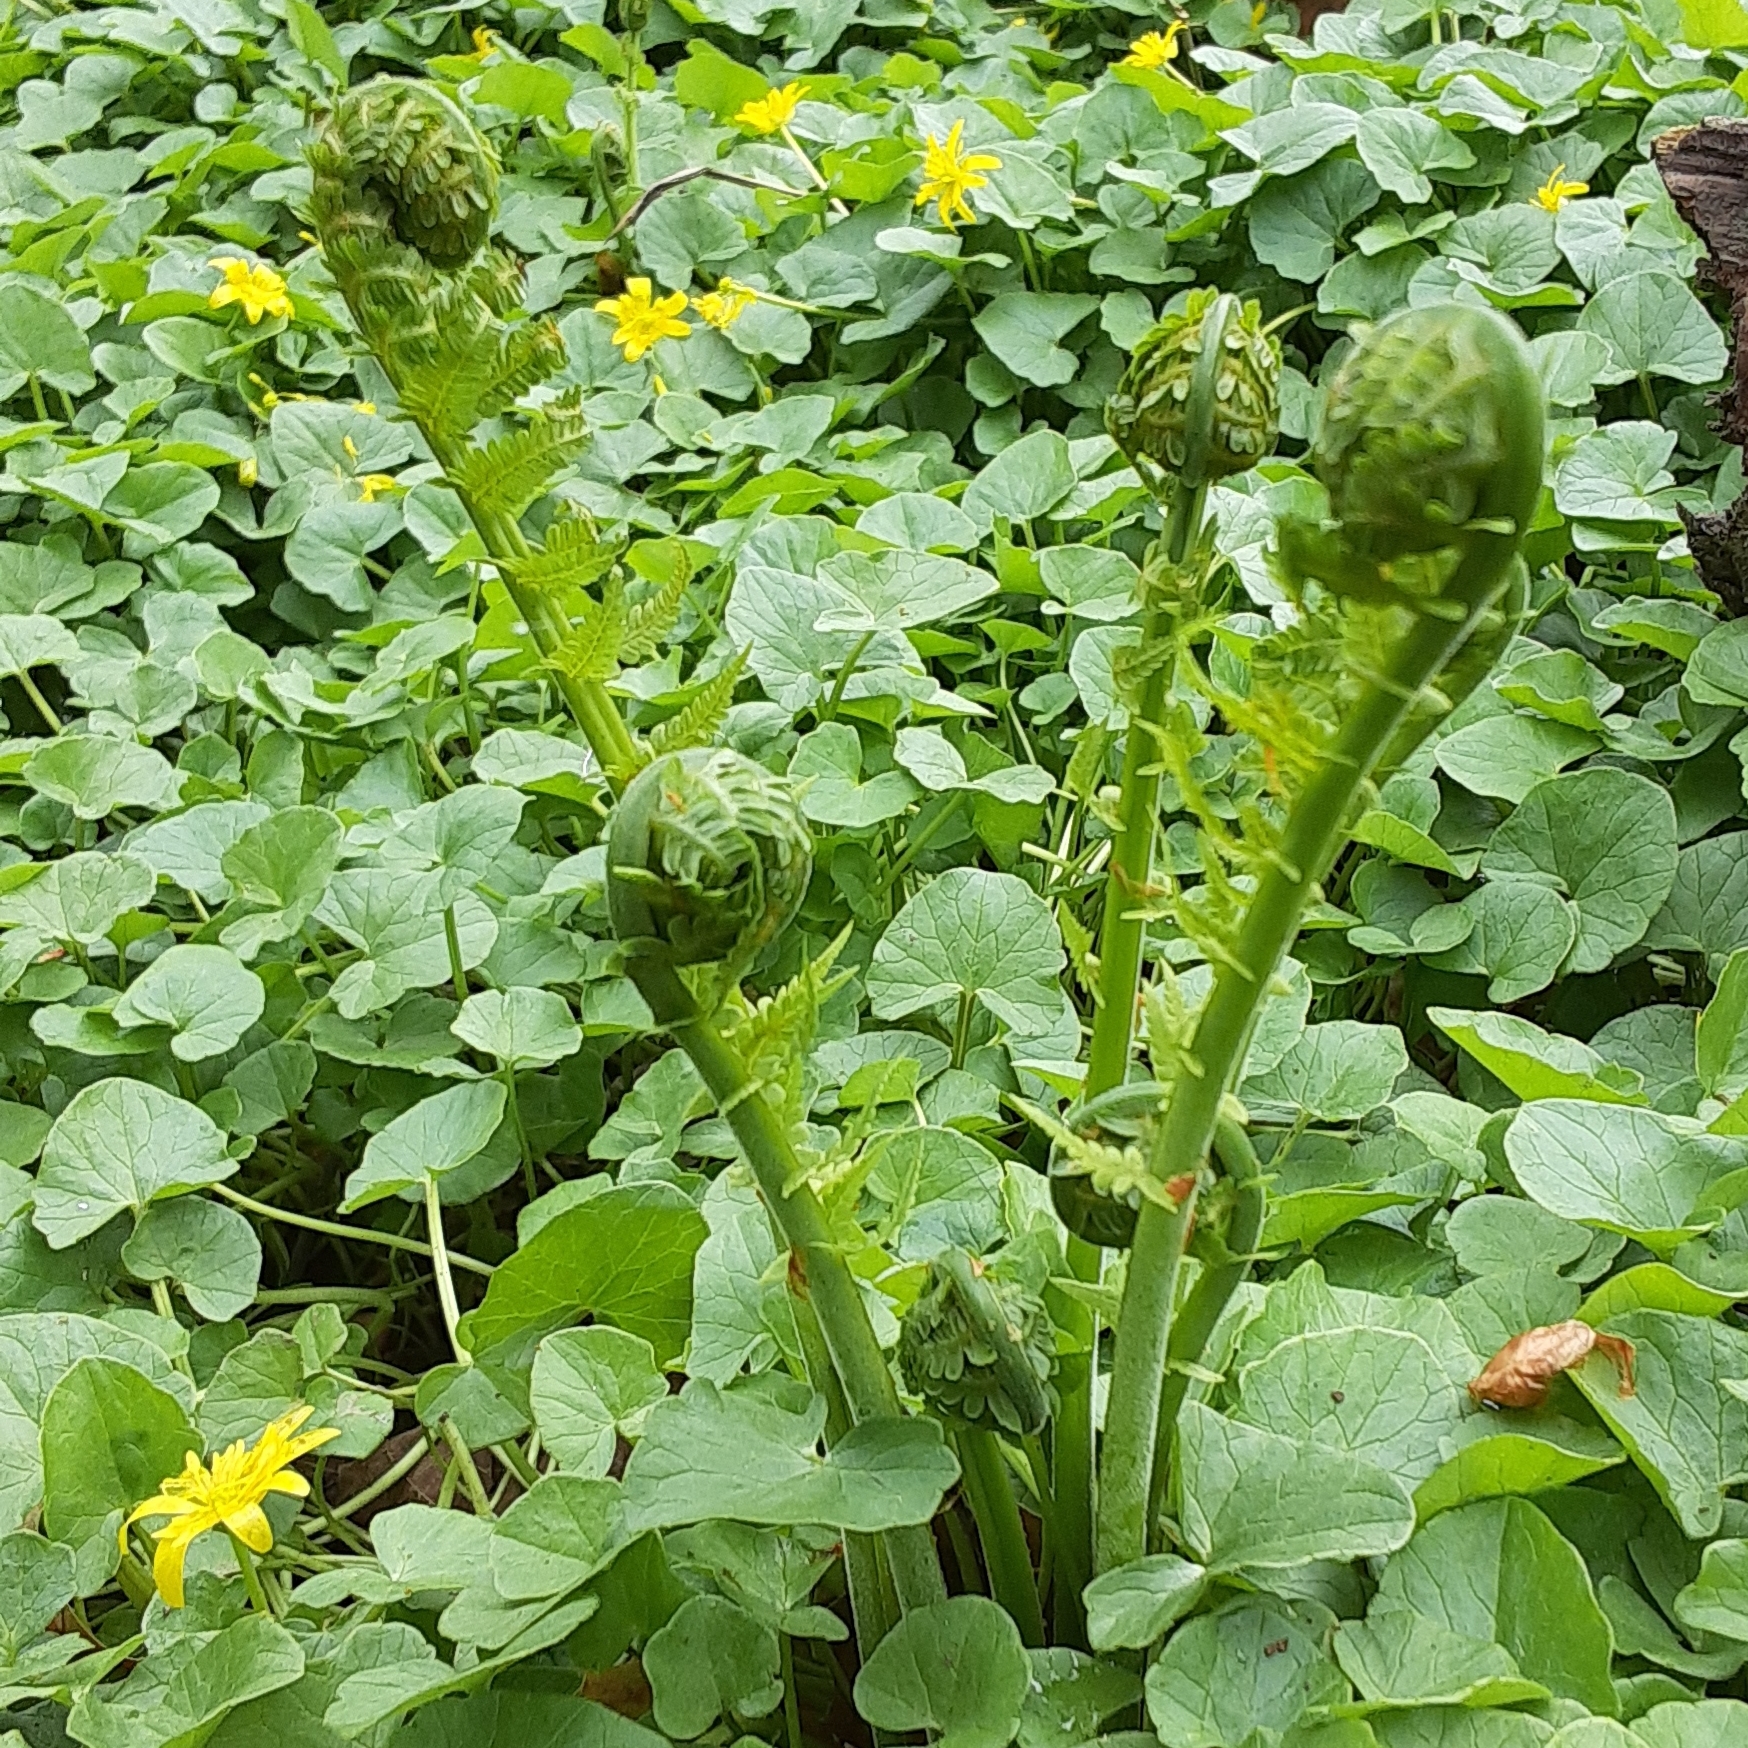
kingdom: Plantae
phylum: Tracheophyta
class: Polypodiopsida
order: Polypodiales
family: Onocleaceae
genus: Matteuccia
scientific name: Matteuccia struthiopteris
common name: Ostrich fern
